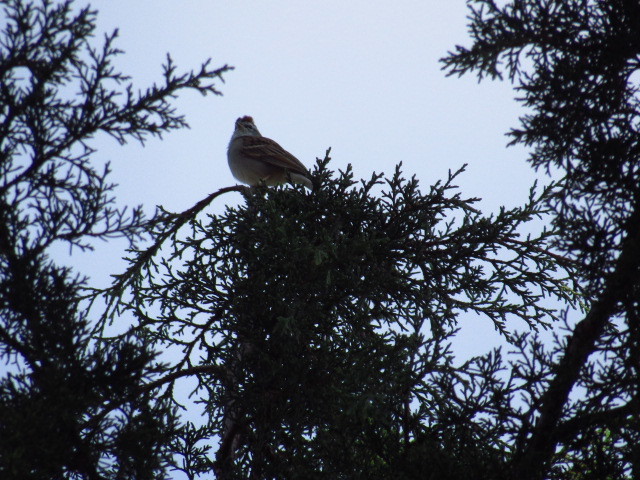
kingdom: Animalia
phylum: Chordata
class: Aves
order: Passeriformes
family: Passerellidae
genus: Spizella
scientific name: Spizella passerina
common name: Chipping sparrow
